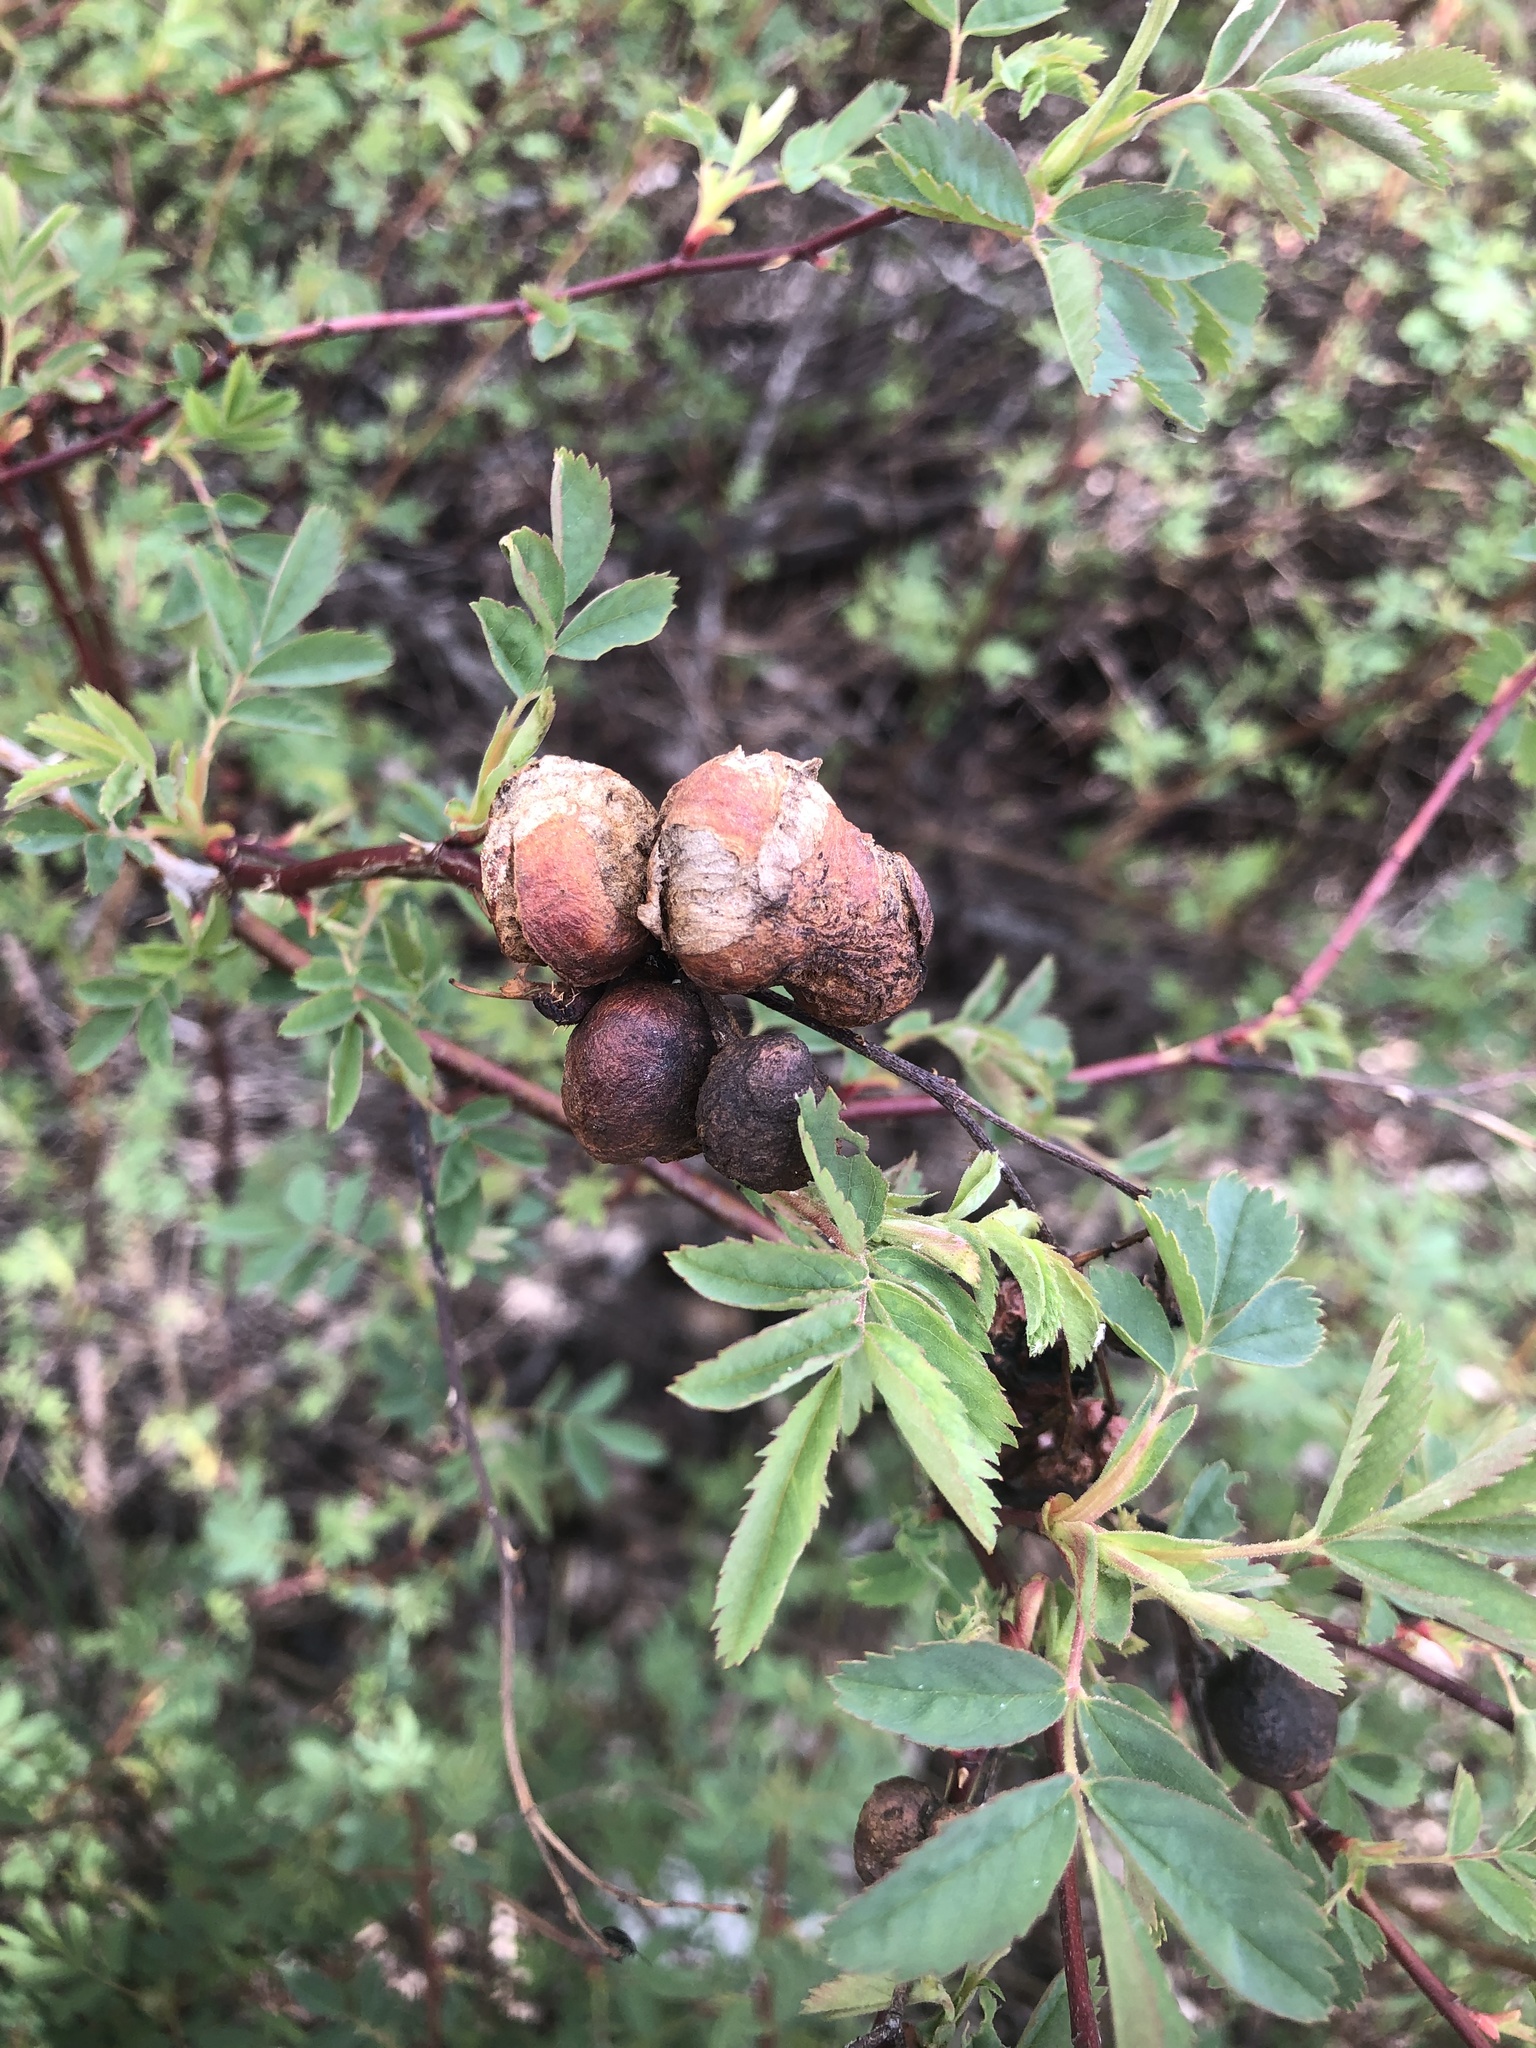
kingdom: Animalia
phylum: Arthropoda
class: Insecta
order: Hymenoptera
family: Cynipidae
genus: Diplolepis
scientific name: Diplolepis variabilis
